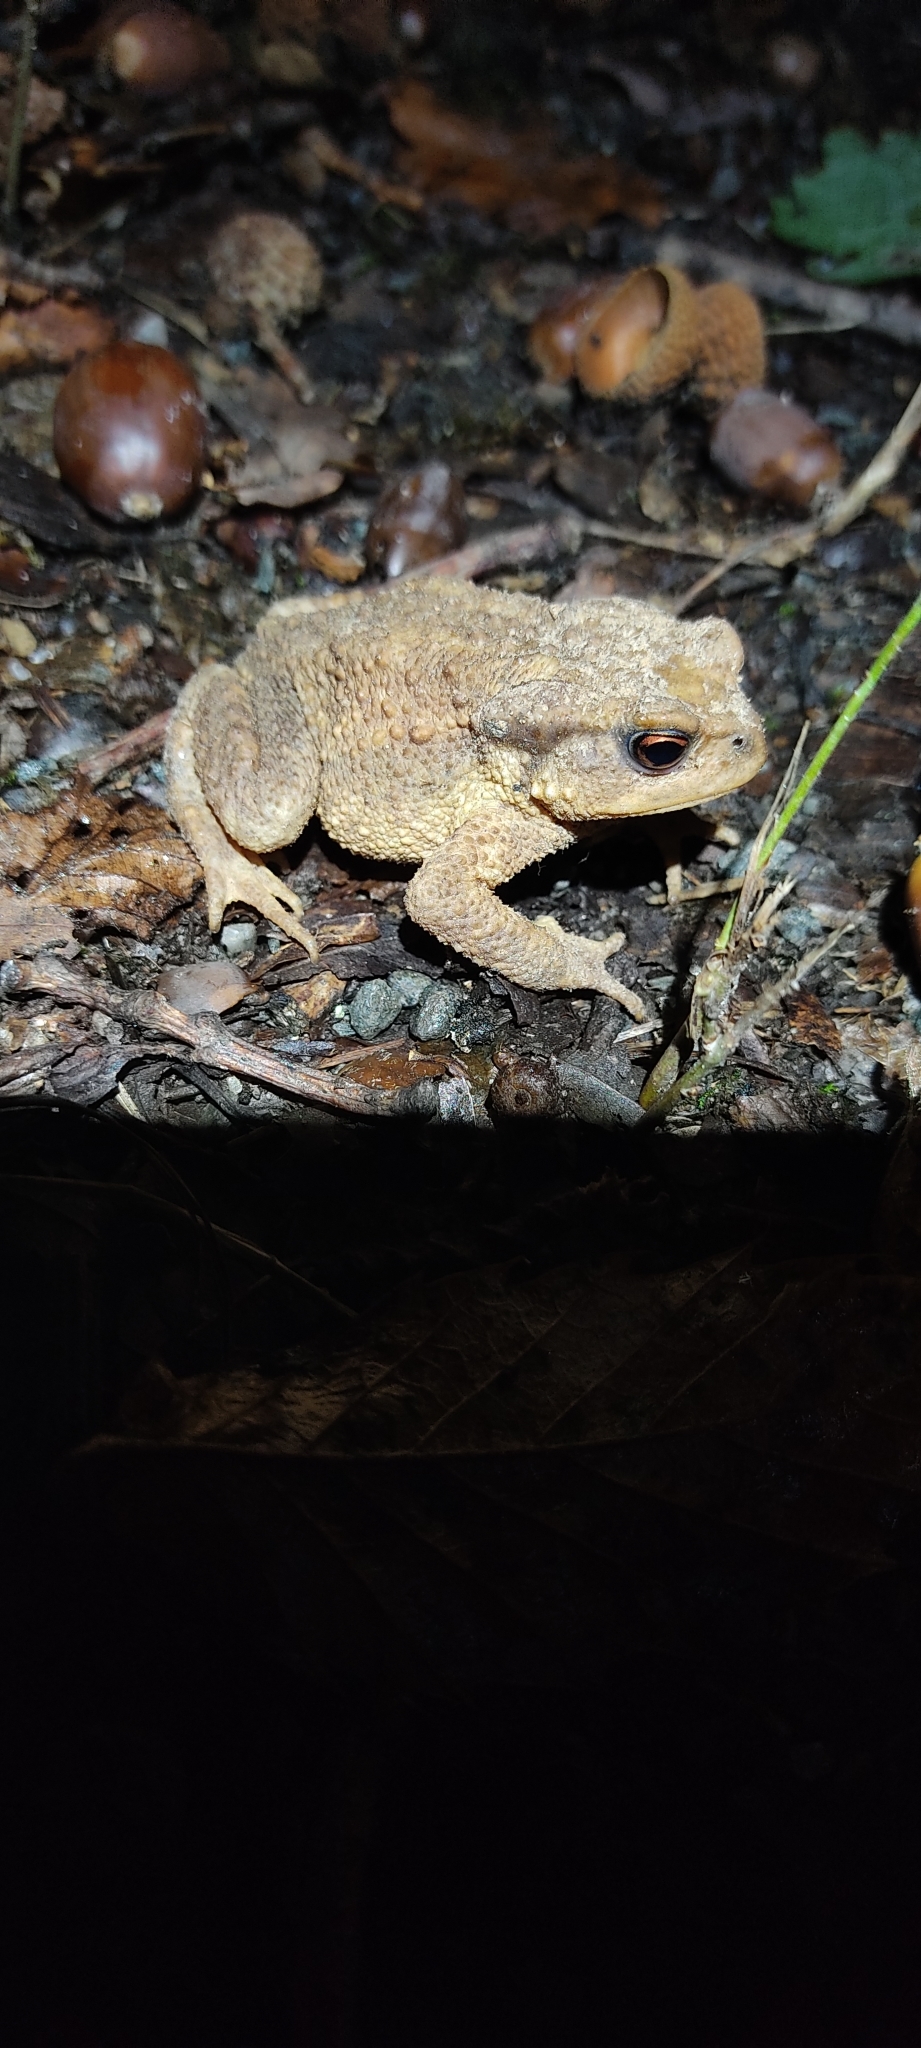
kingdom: Animalia
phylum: Chordata
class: Amphibia
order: Anura
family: Bufonidae
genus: Bufo
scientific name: Bufo spinosus
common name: Western common toad
